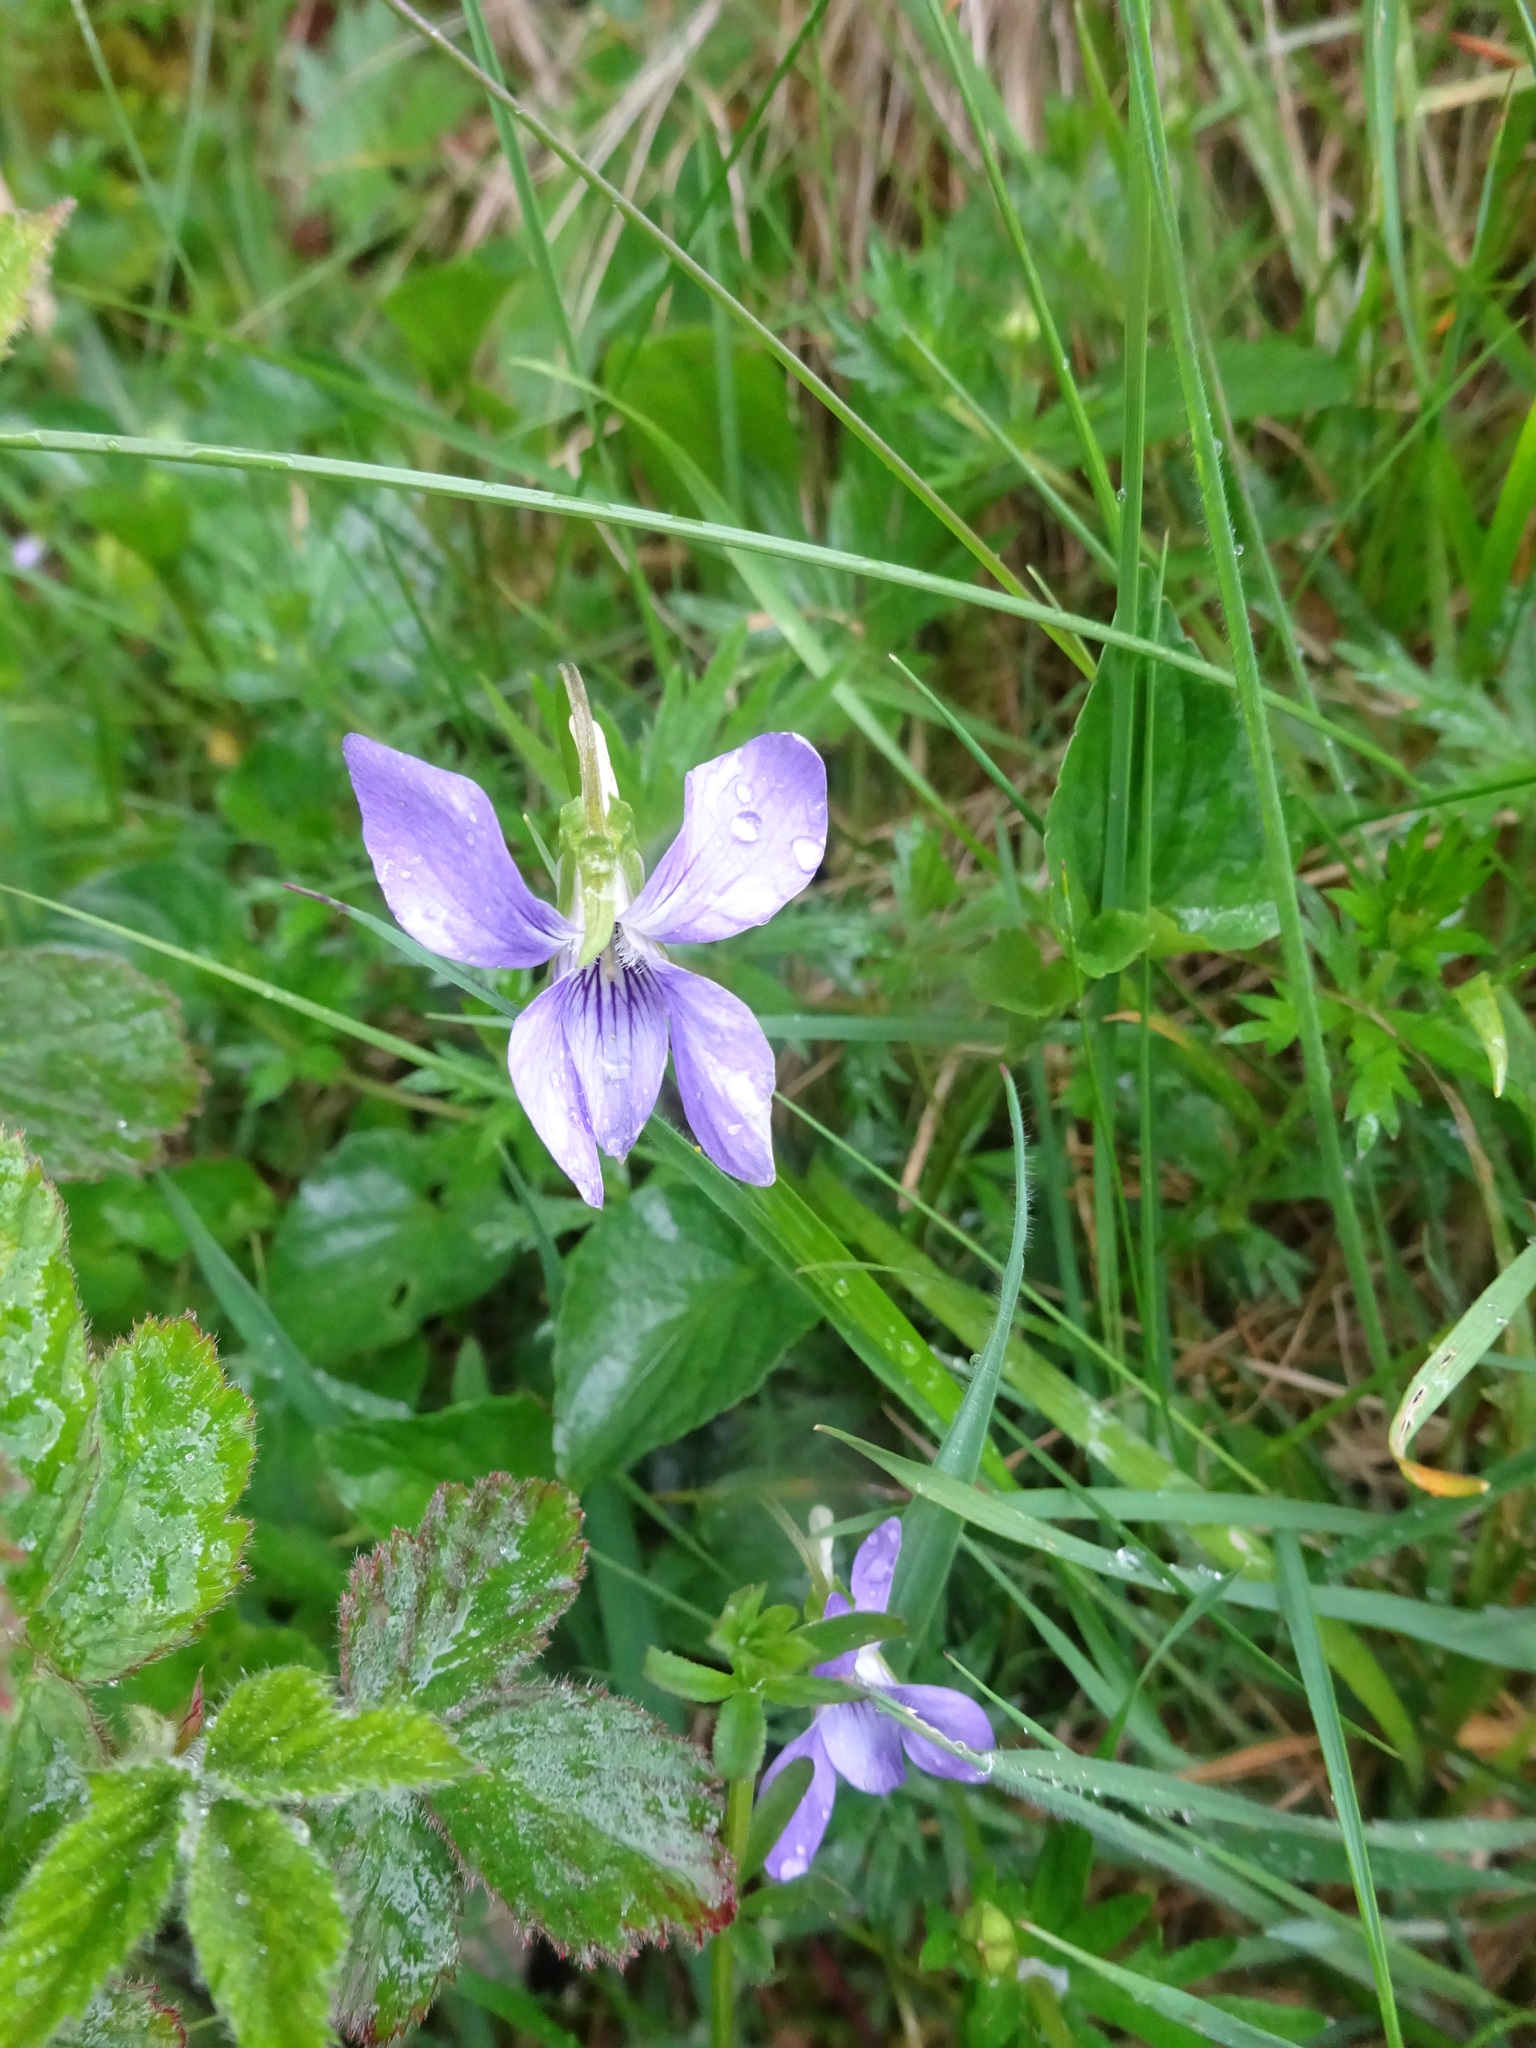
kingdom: Plantae
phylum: Tracheophyta
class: Magnoliopsida
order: Malpighiales
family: Violaceae
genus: Viola
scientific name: Viola riviniana
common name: Common dog-violet
